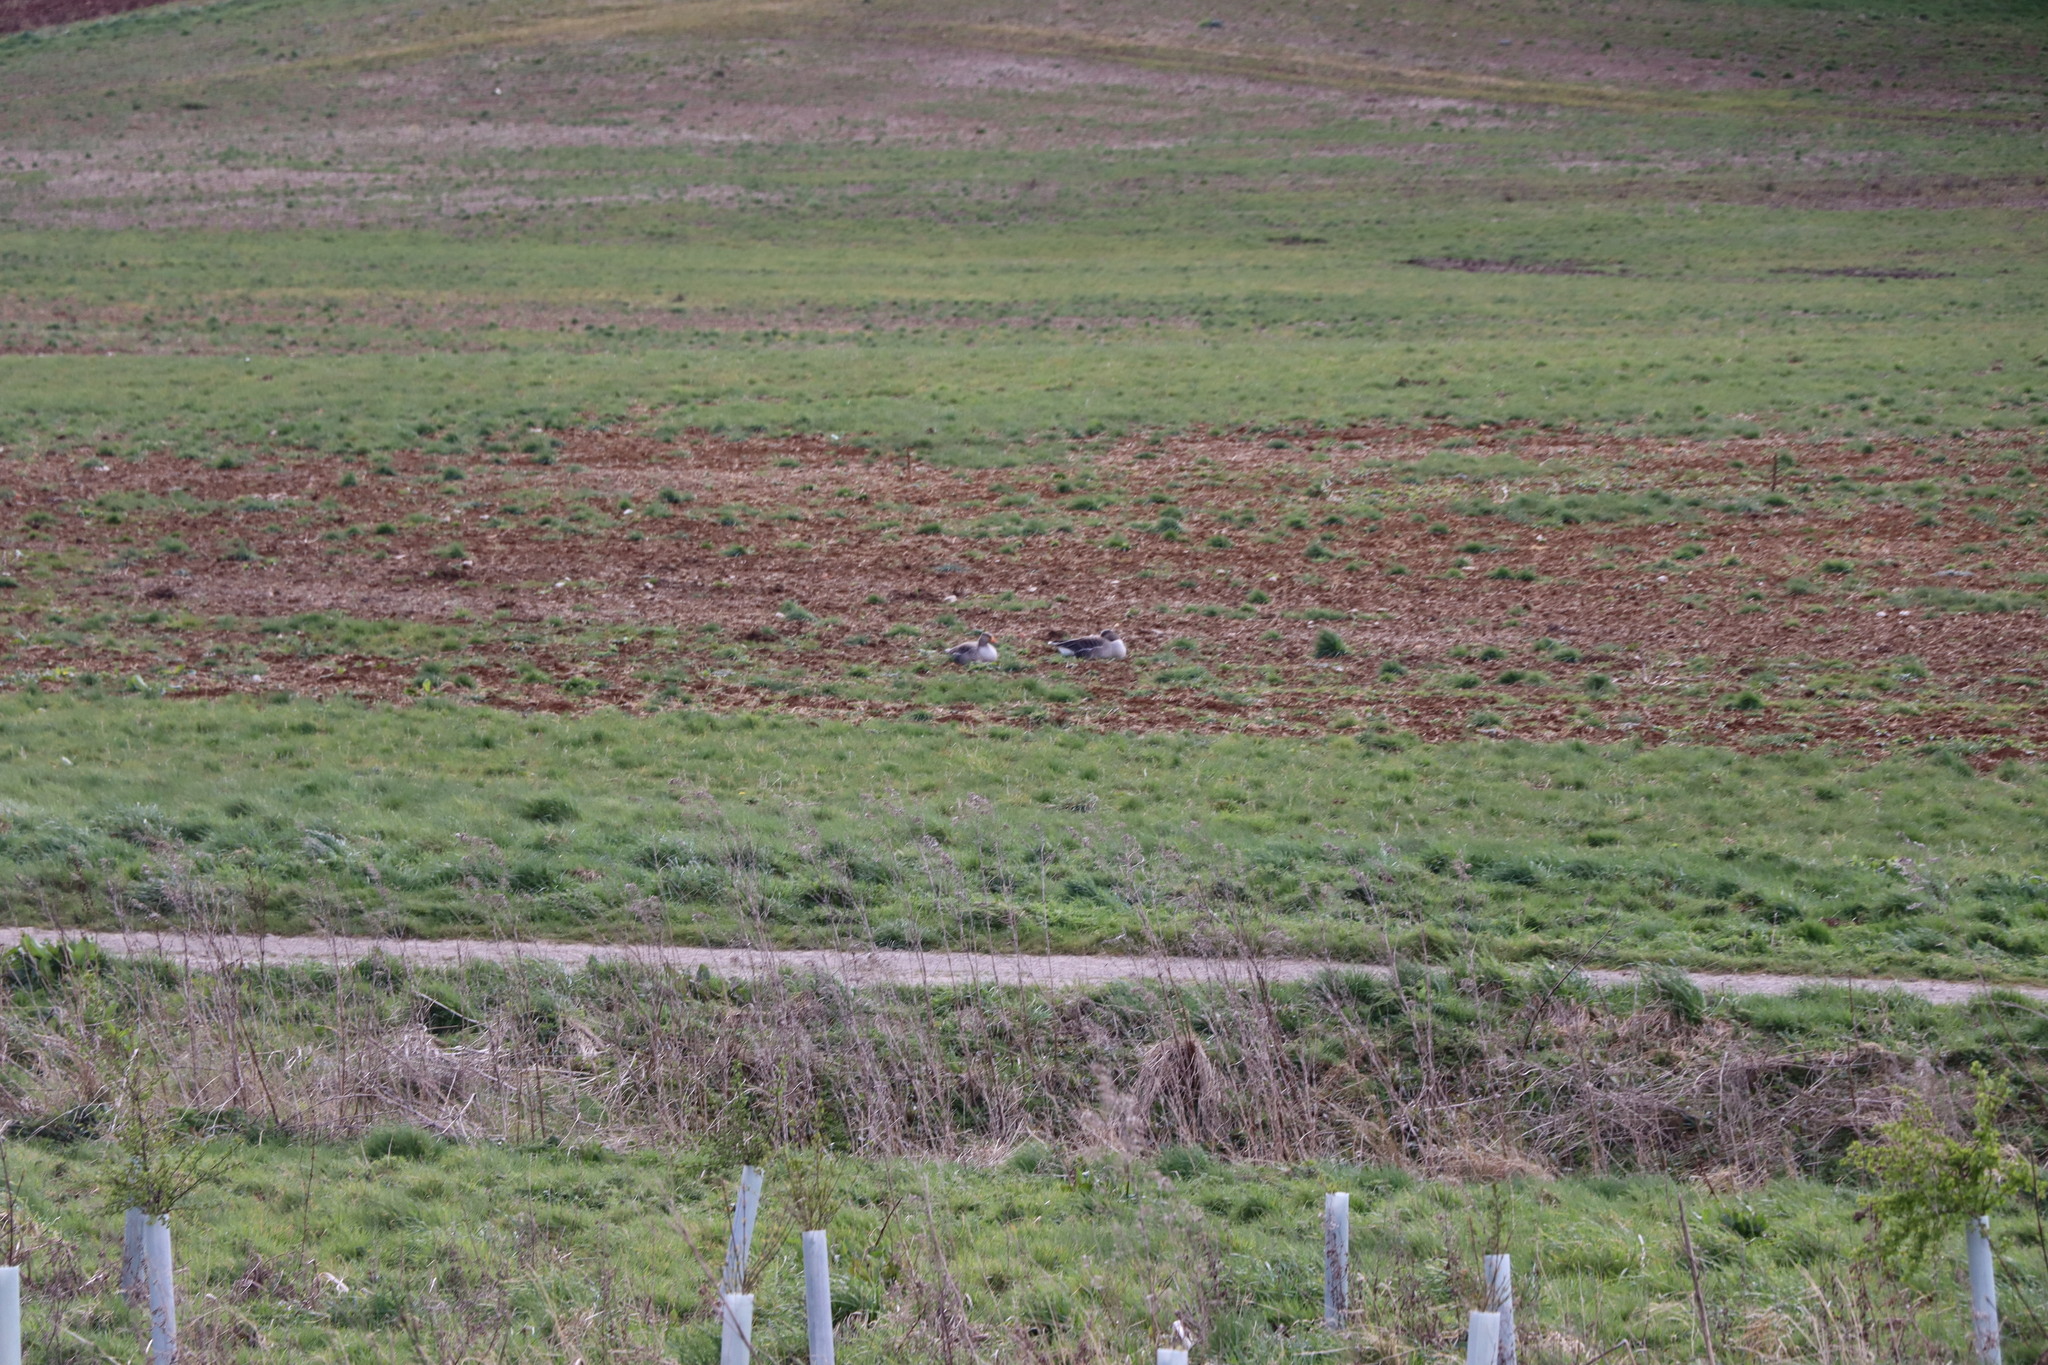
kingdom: Animalia
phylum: Chordata
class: Aves
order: Anseriformes
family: Anatidae
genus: Anser
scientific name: Anser anser
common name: Greylag goose
